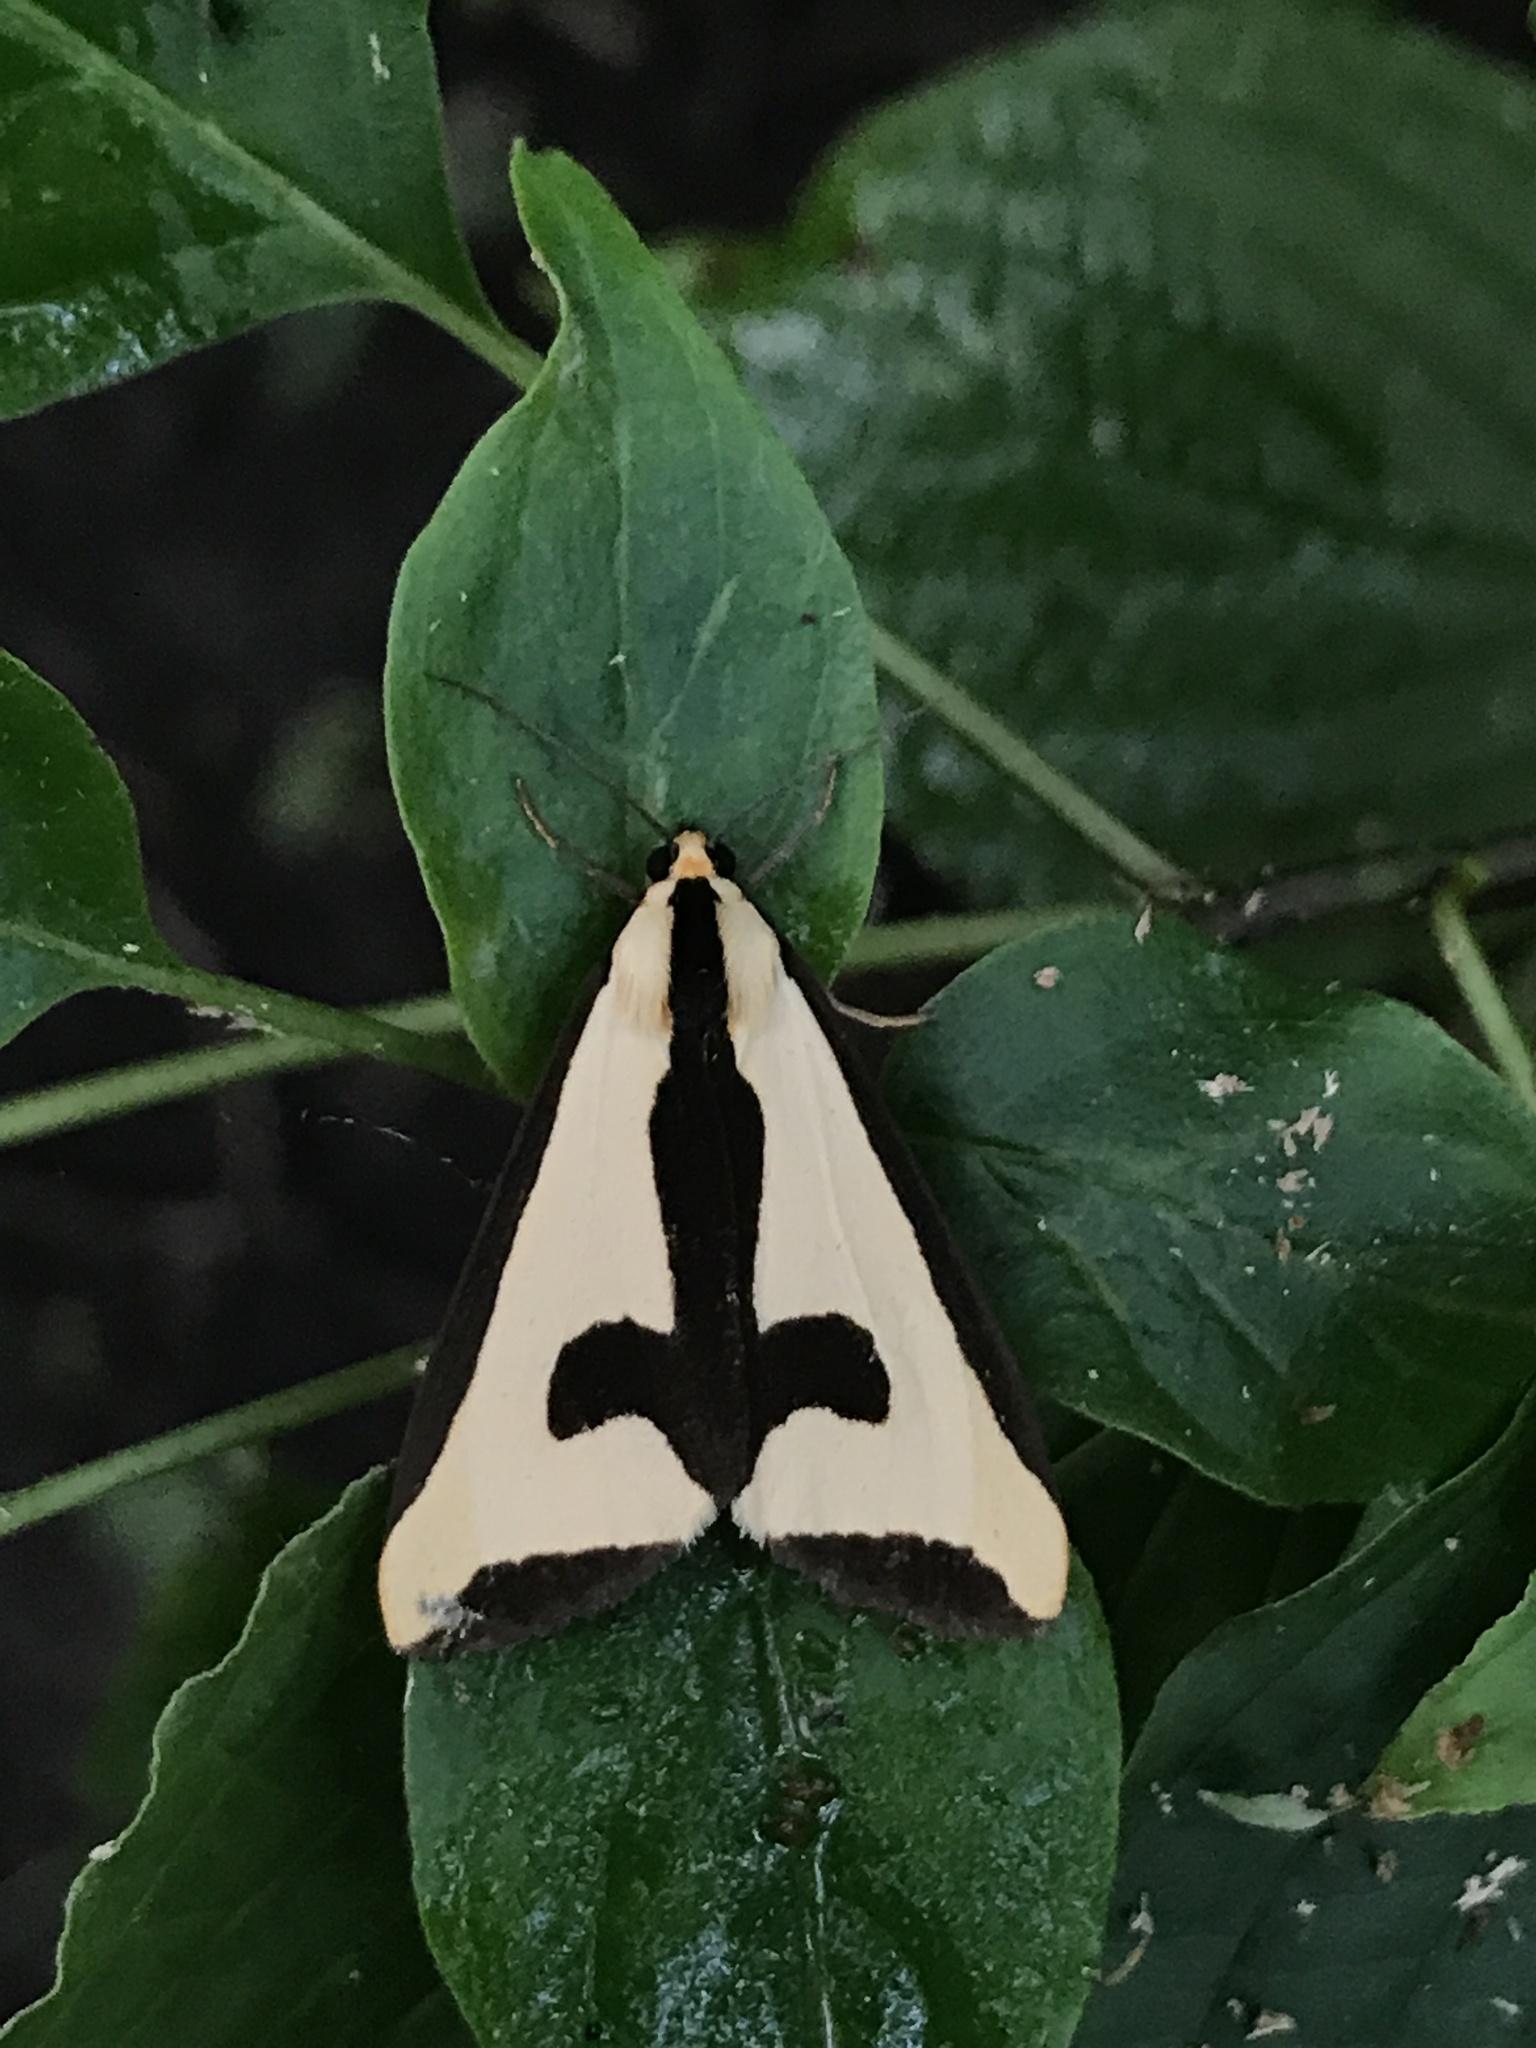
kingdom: Animalia
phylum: Arthropoda
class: Insecta
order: Lepidoptera
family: Erebidae
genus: Haploa
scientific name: Haploa clymene
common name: Clymene moth
